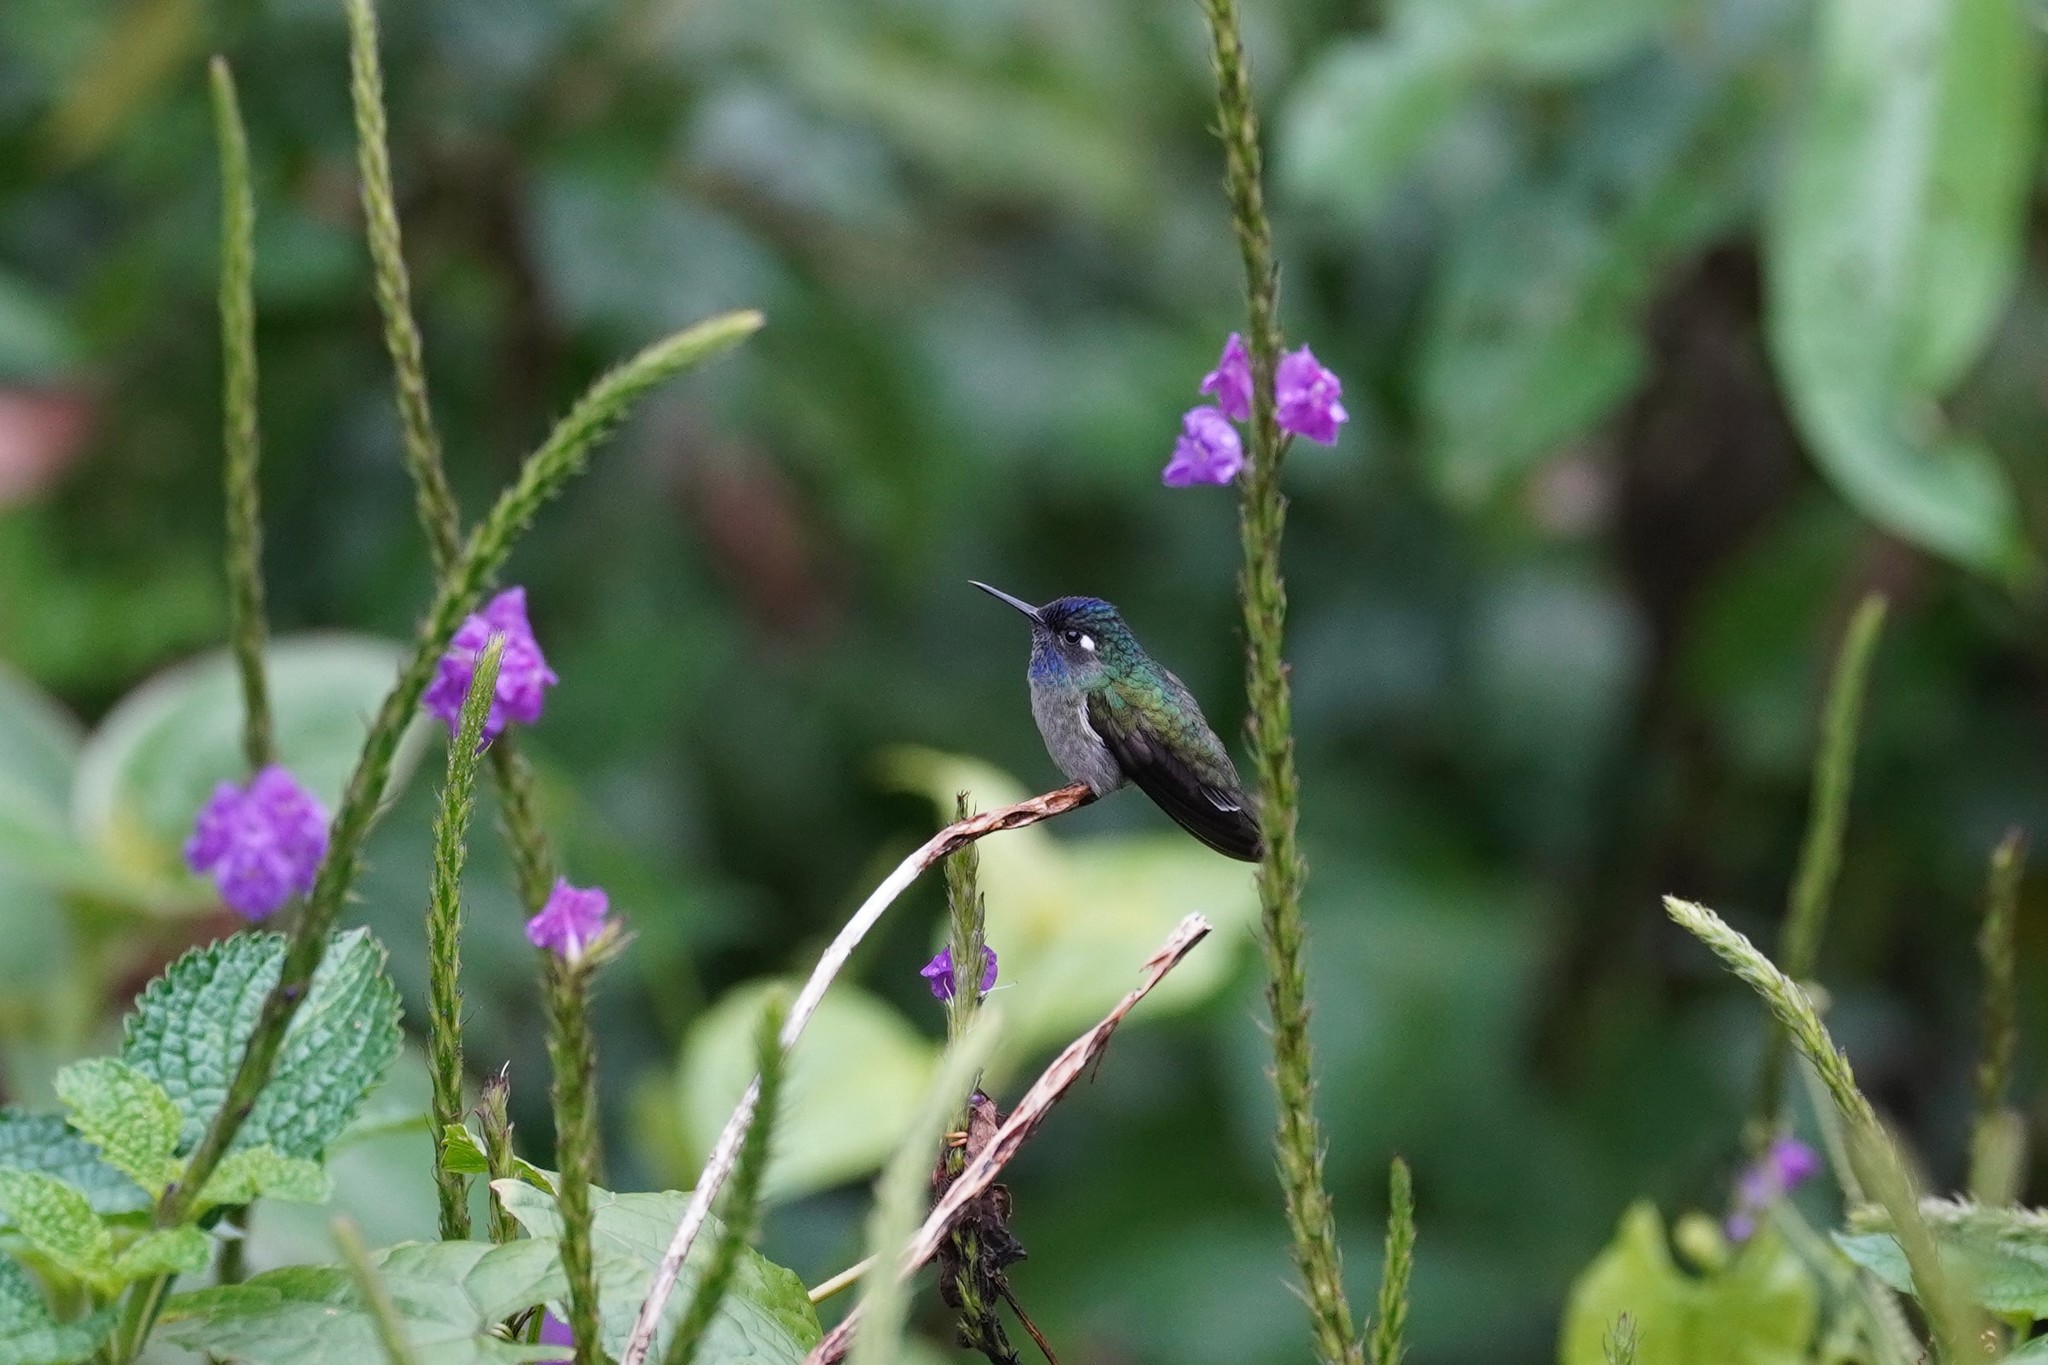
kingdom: Animalia
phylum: Chordata
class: Aves
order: Apodiformes
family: Trochilidae
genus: Klais
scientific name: Klais guimeti
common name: Violet-headed hummingbird
